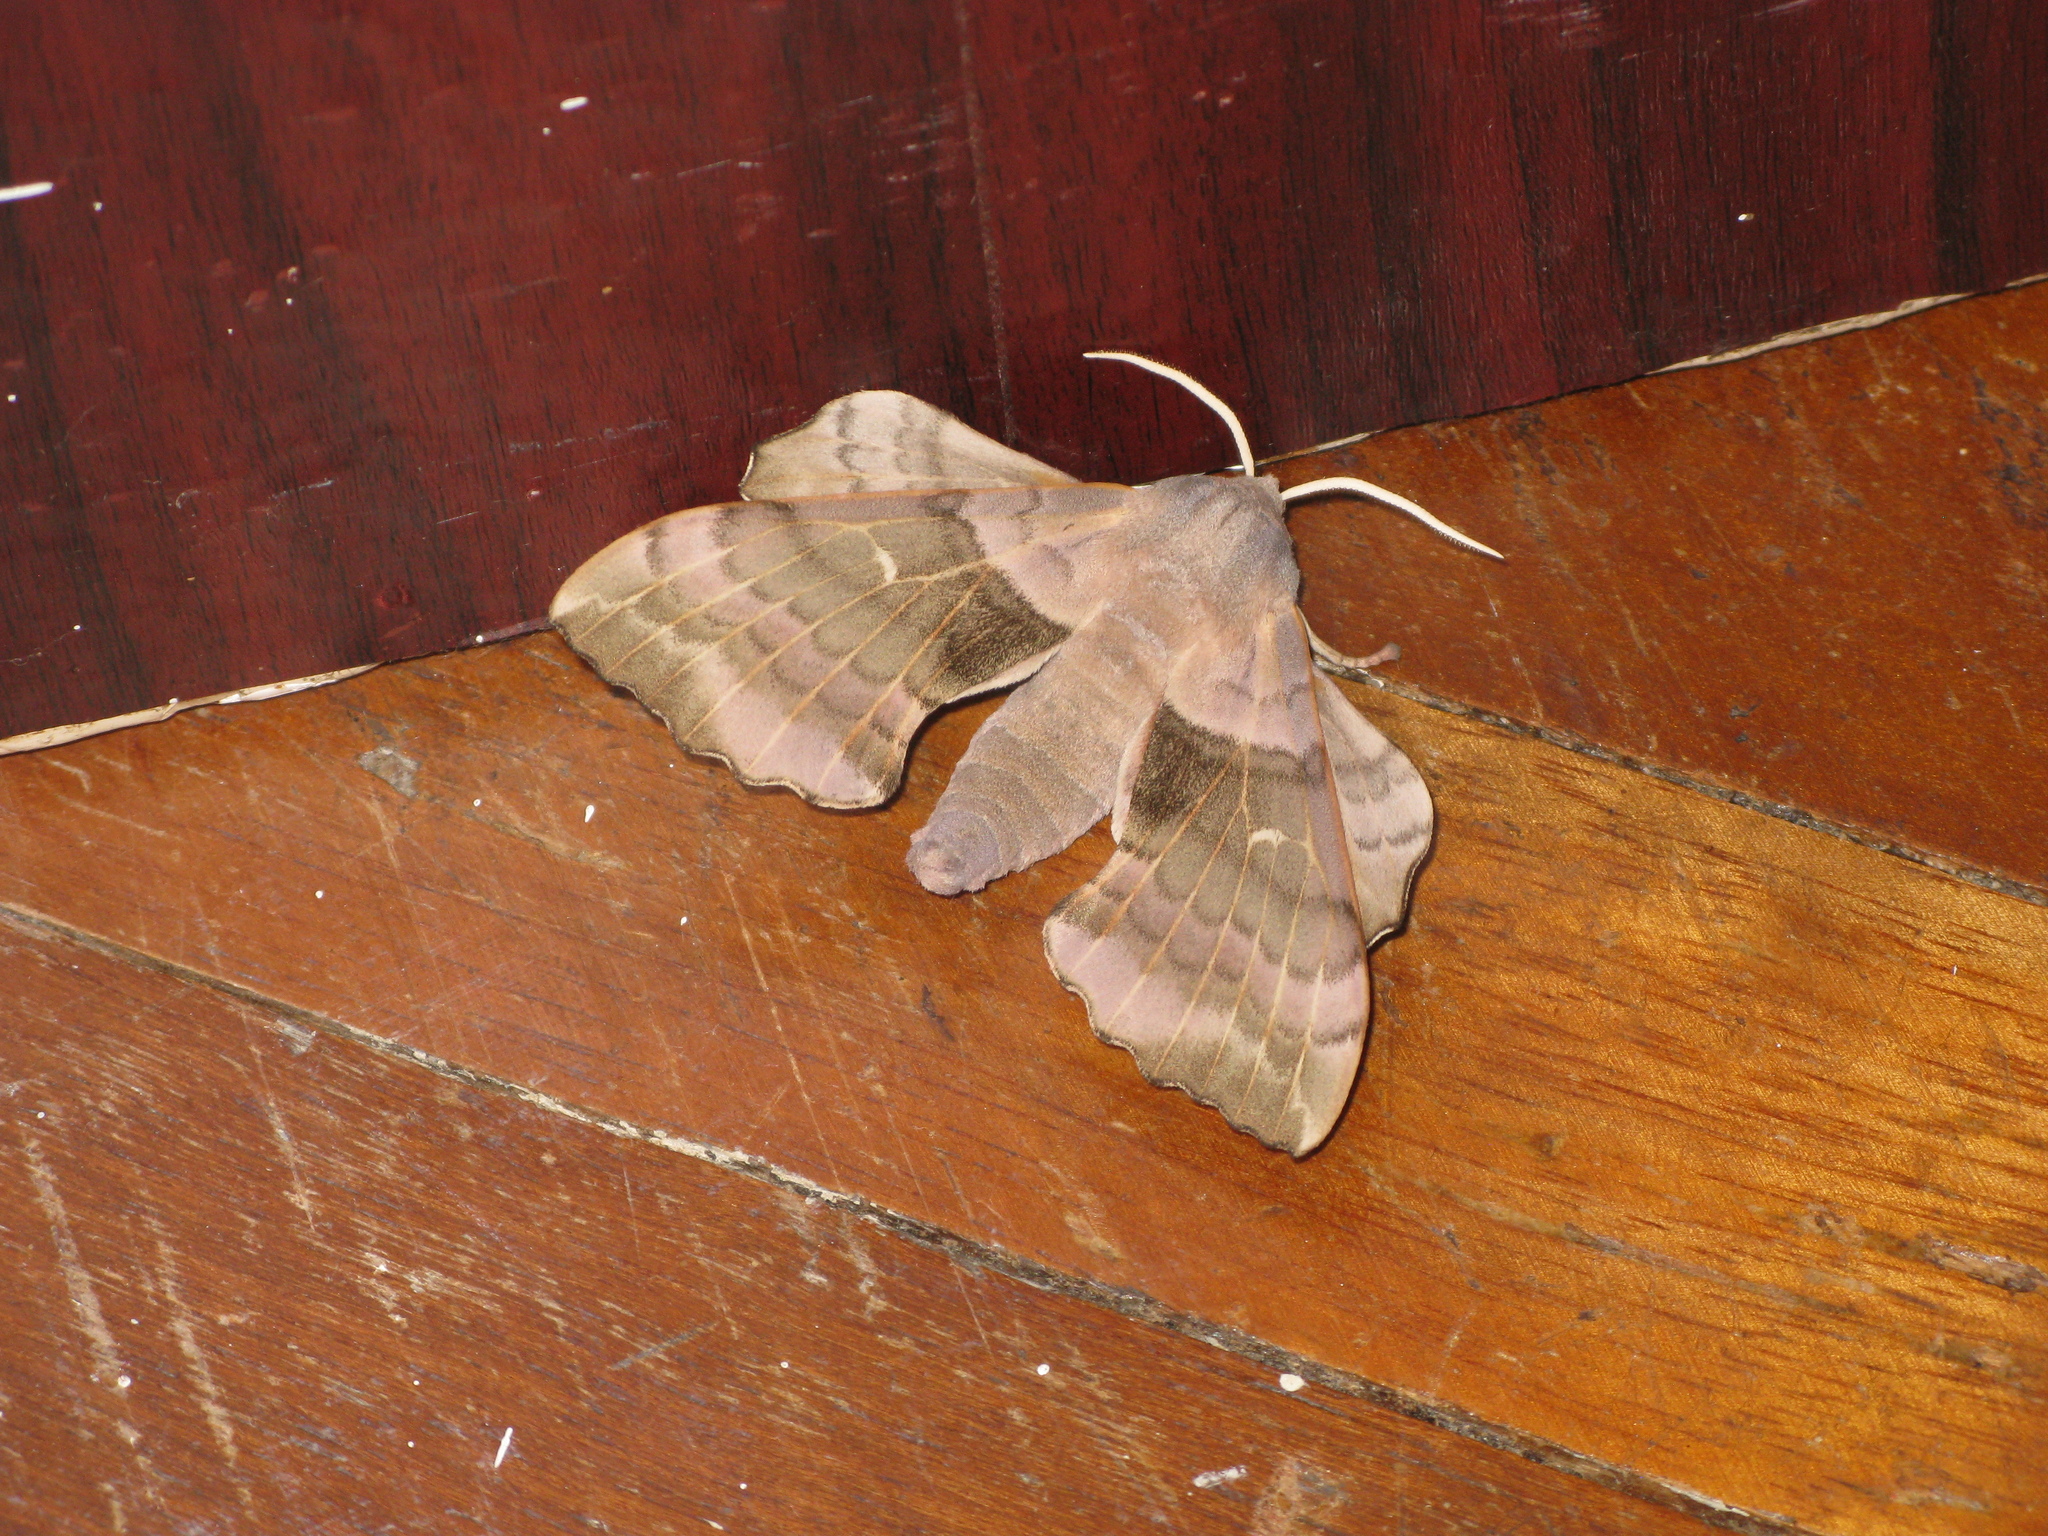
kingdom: Animalia
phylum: Arthropoda
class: Insecta
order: Lepidoptera
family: Sphingidae
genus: Laothoe
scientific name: Laothoe populi
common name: Poplar hawk-moth
